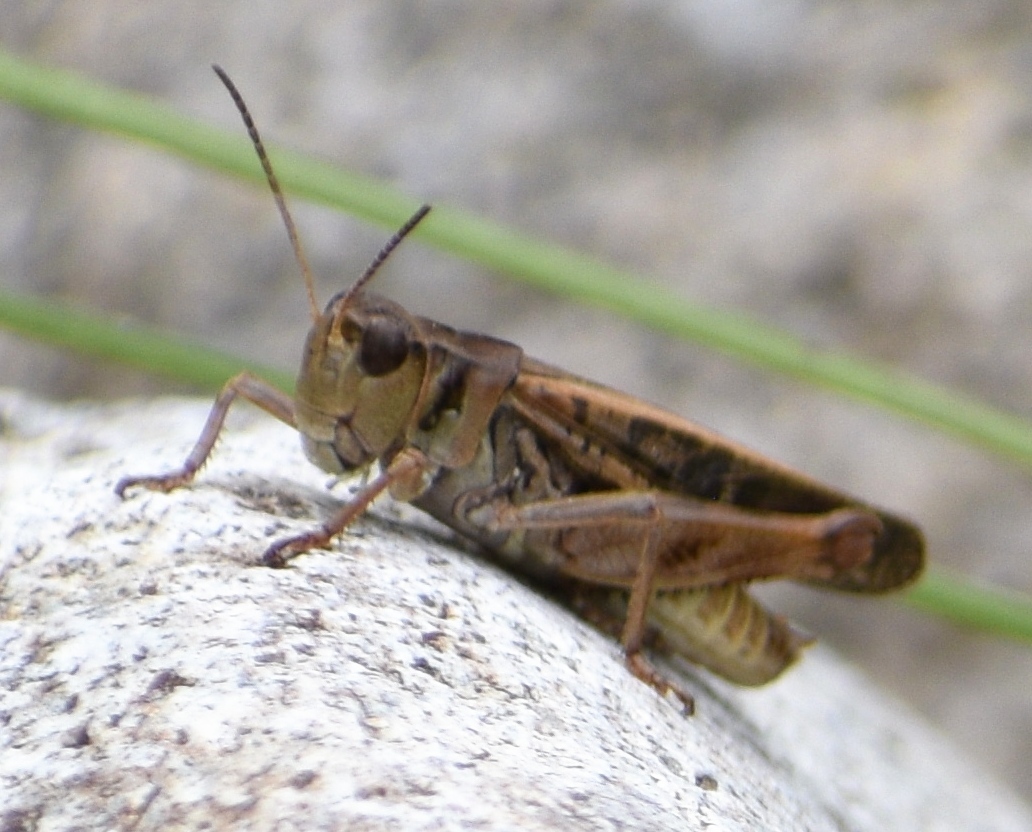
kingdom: Animalia
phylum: Arthropoda
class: Insecta
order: Orthoptera
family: Acrididae
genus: Camnula
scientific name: Camnula pellucida
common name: Clear-winged grasshopper
